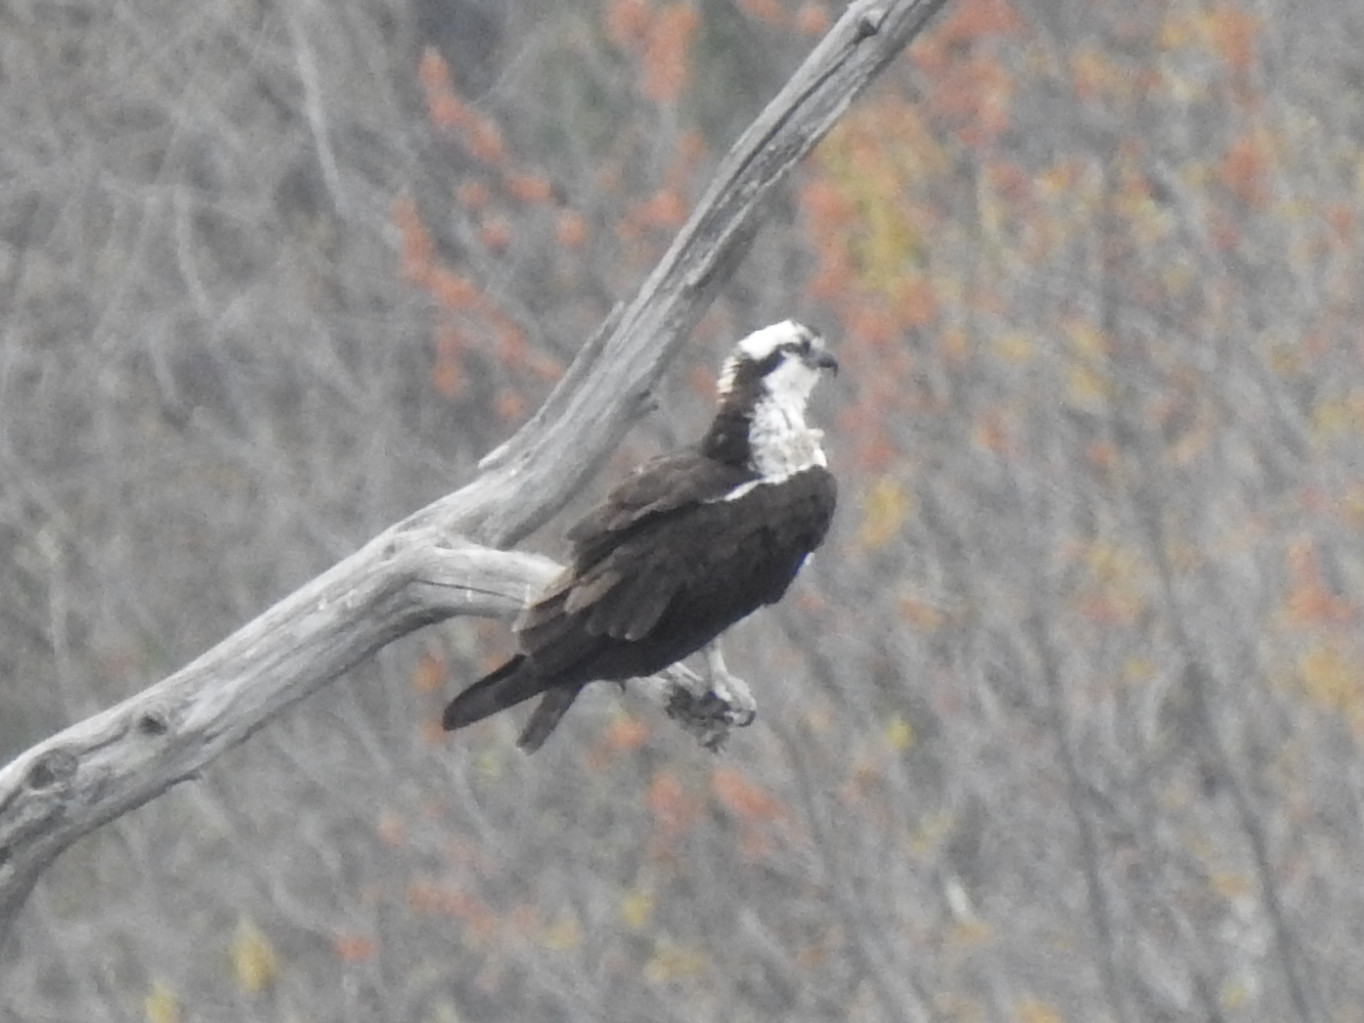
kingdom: Animalia
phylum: Chordata
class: Aves
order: Accipitriformes
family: Pandionidae
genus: Pandion
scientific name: Pandion haliaetus
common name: Osprey
